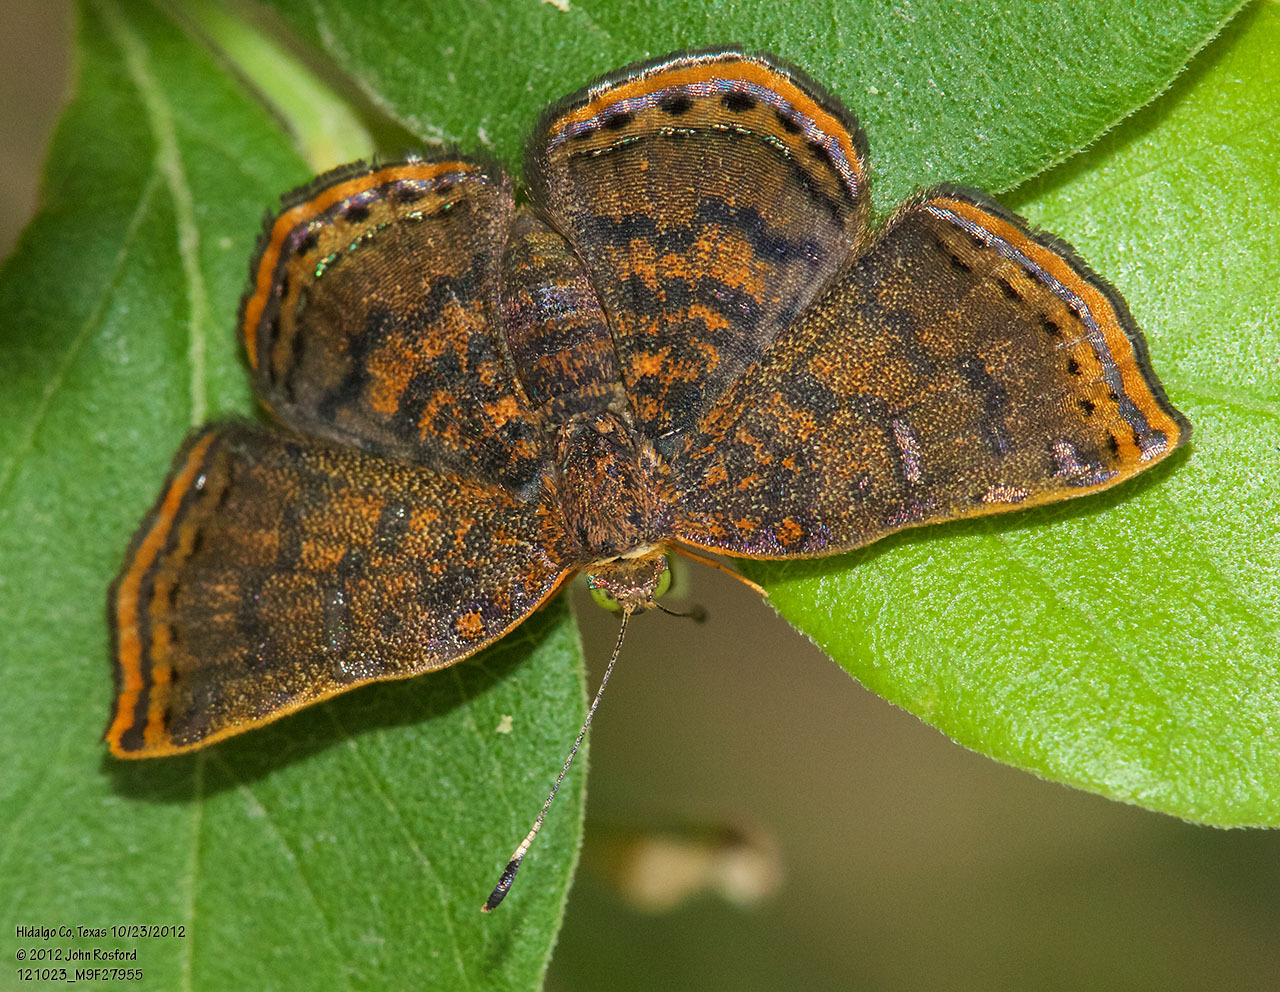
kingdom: Animalia
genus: Caria
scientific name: Caria ino
